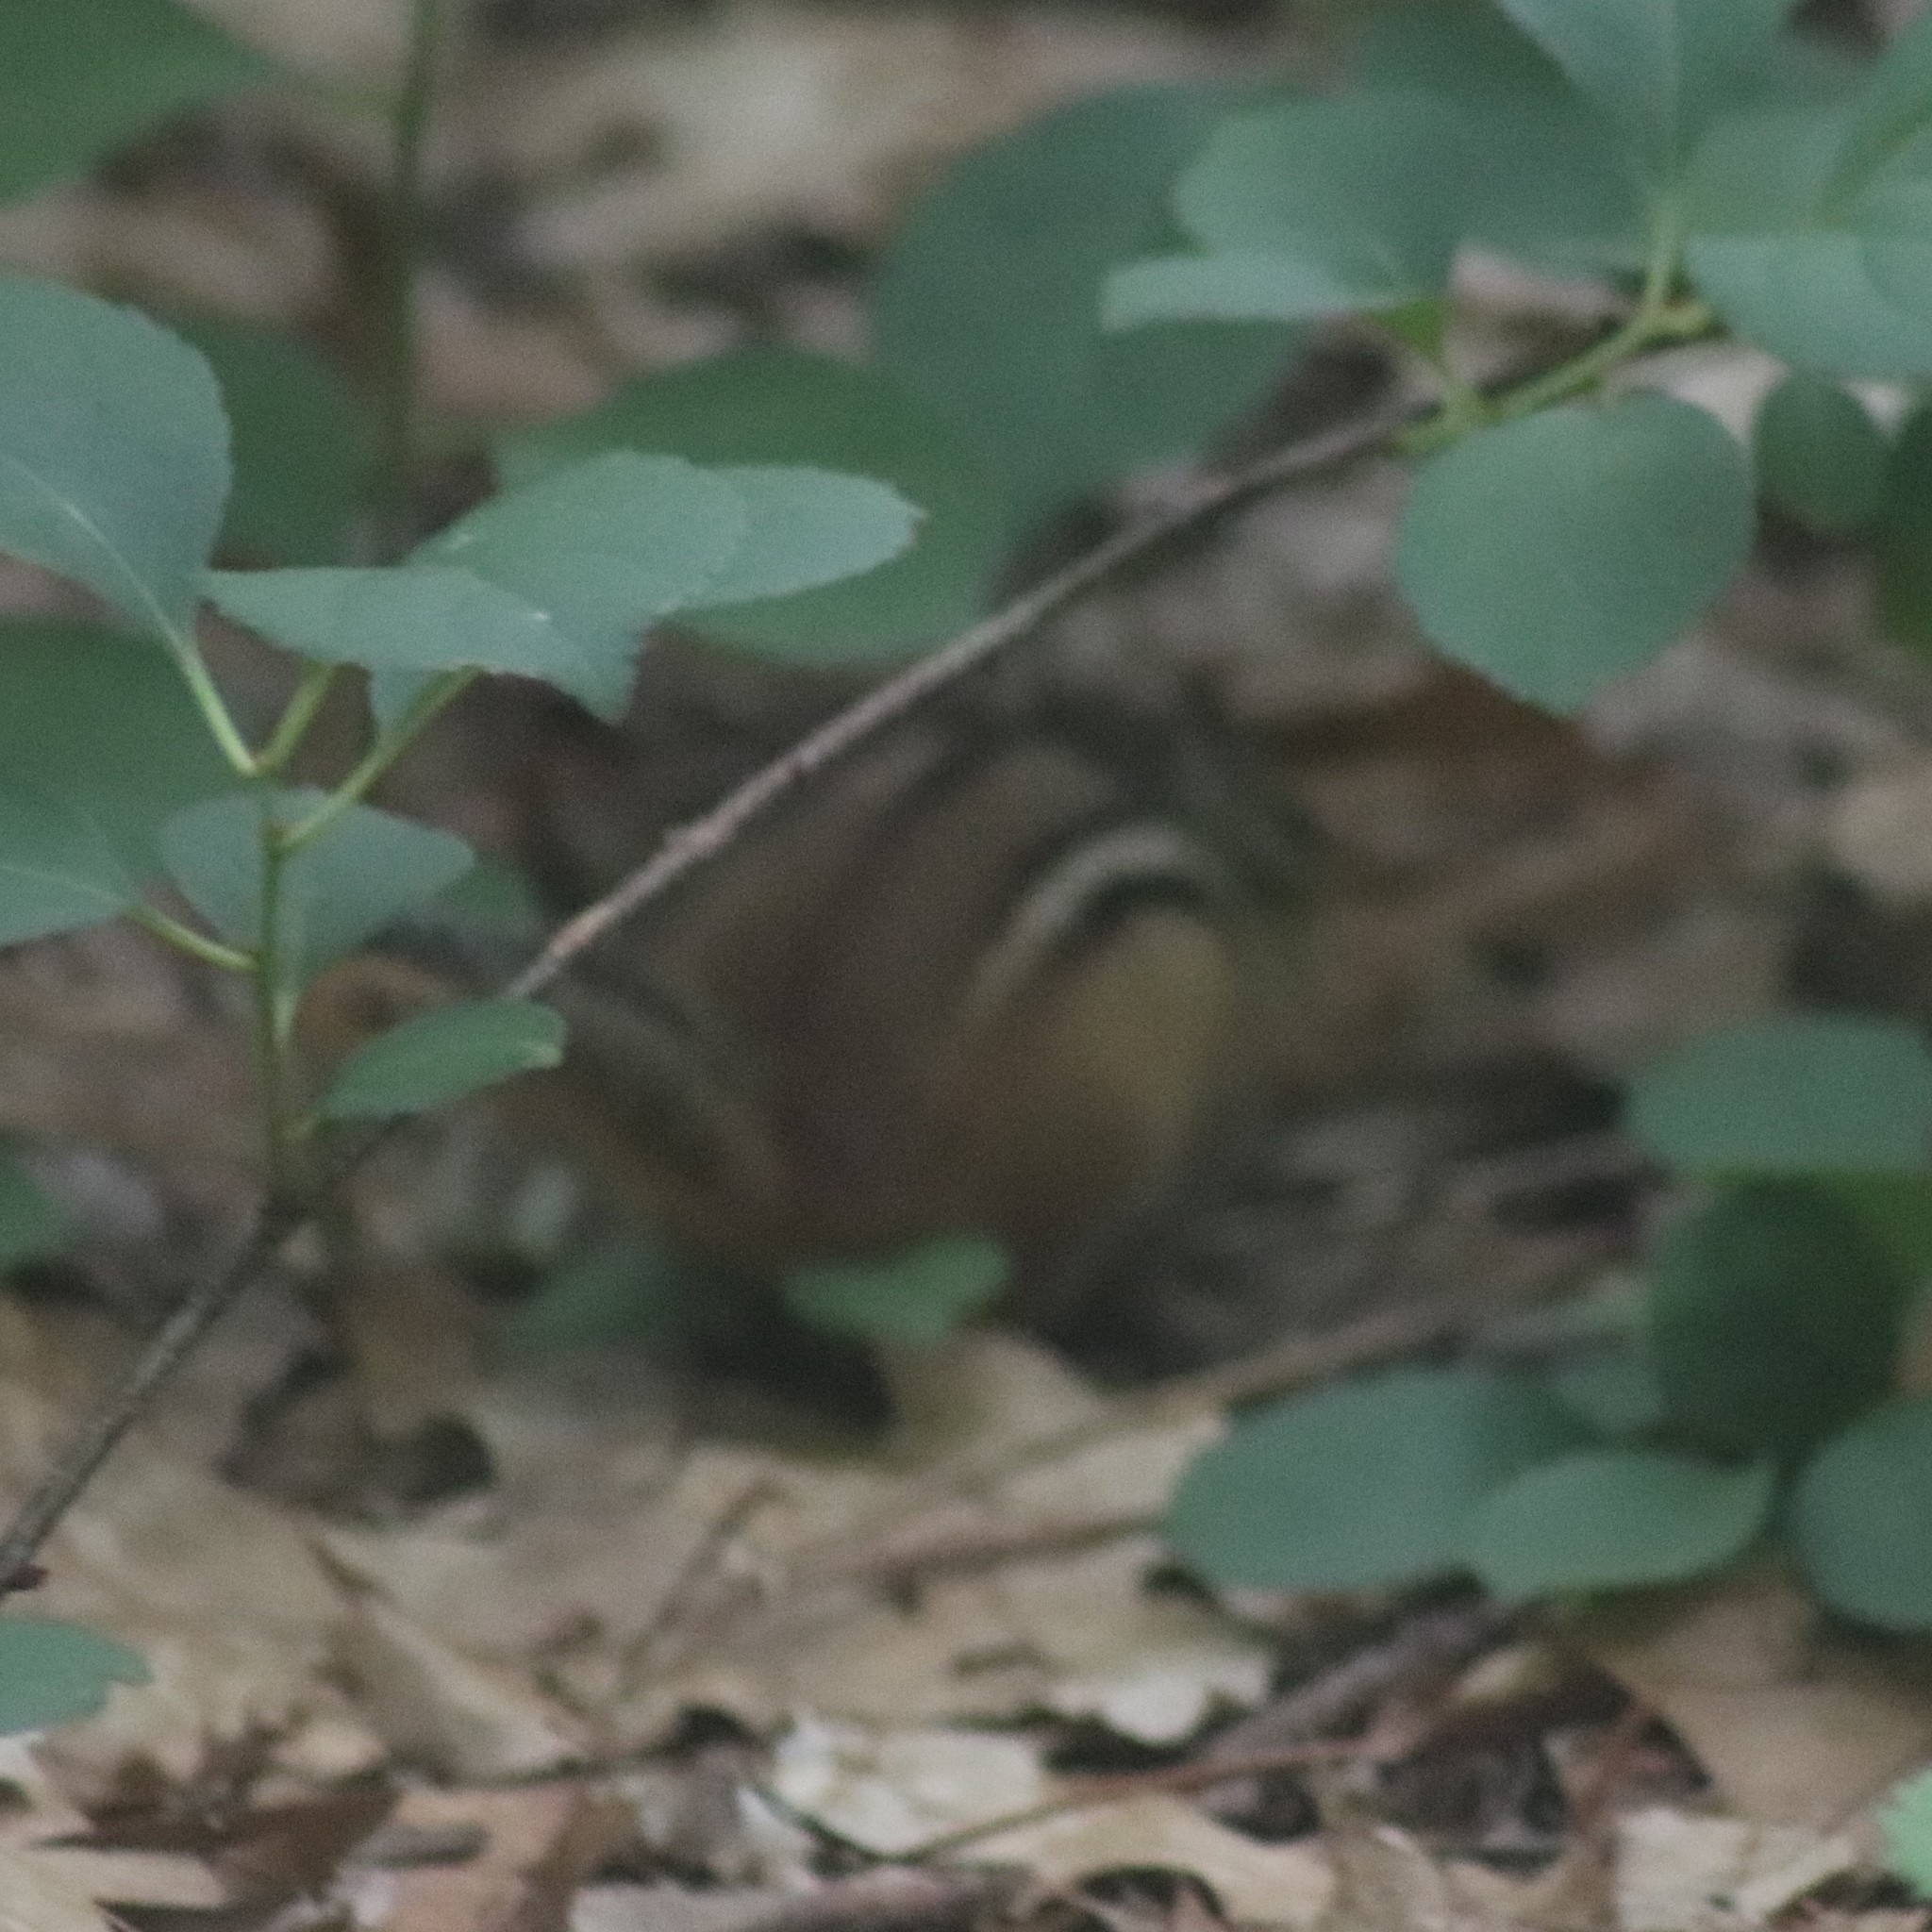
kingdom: Animalia
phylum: Chordata
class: Mammalia
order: Rodentia
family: Sciuridae
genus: Tamias
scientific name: Tamias striatus
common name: Eastern chipmunk
